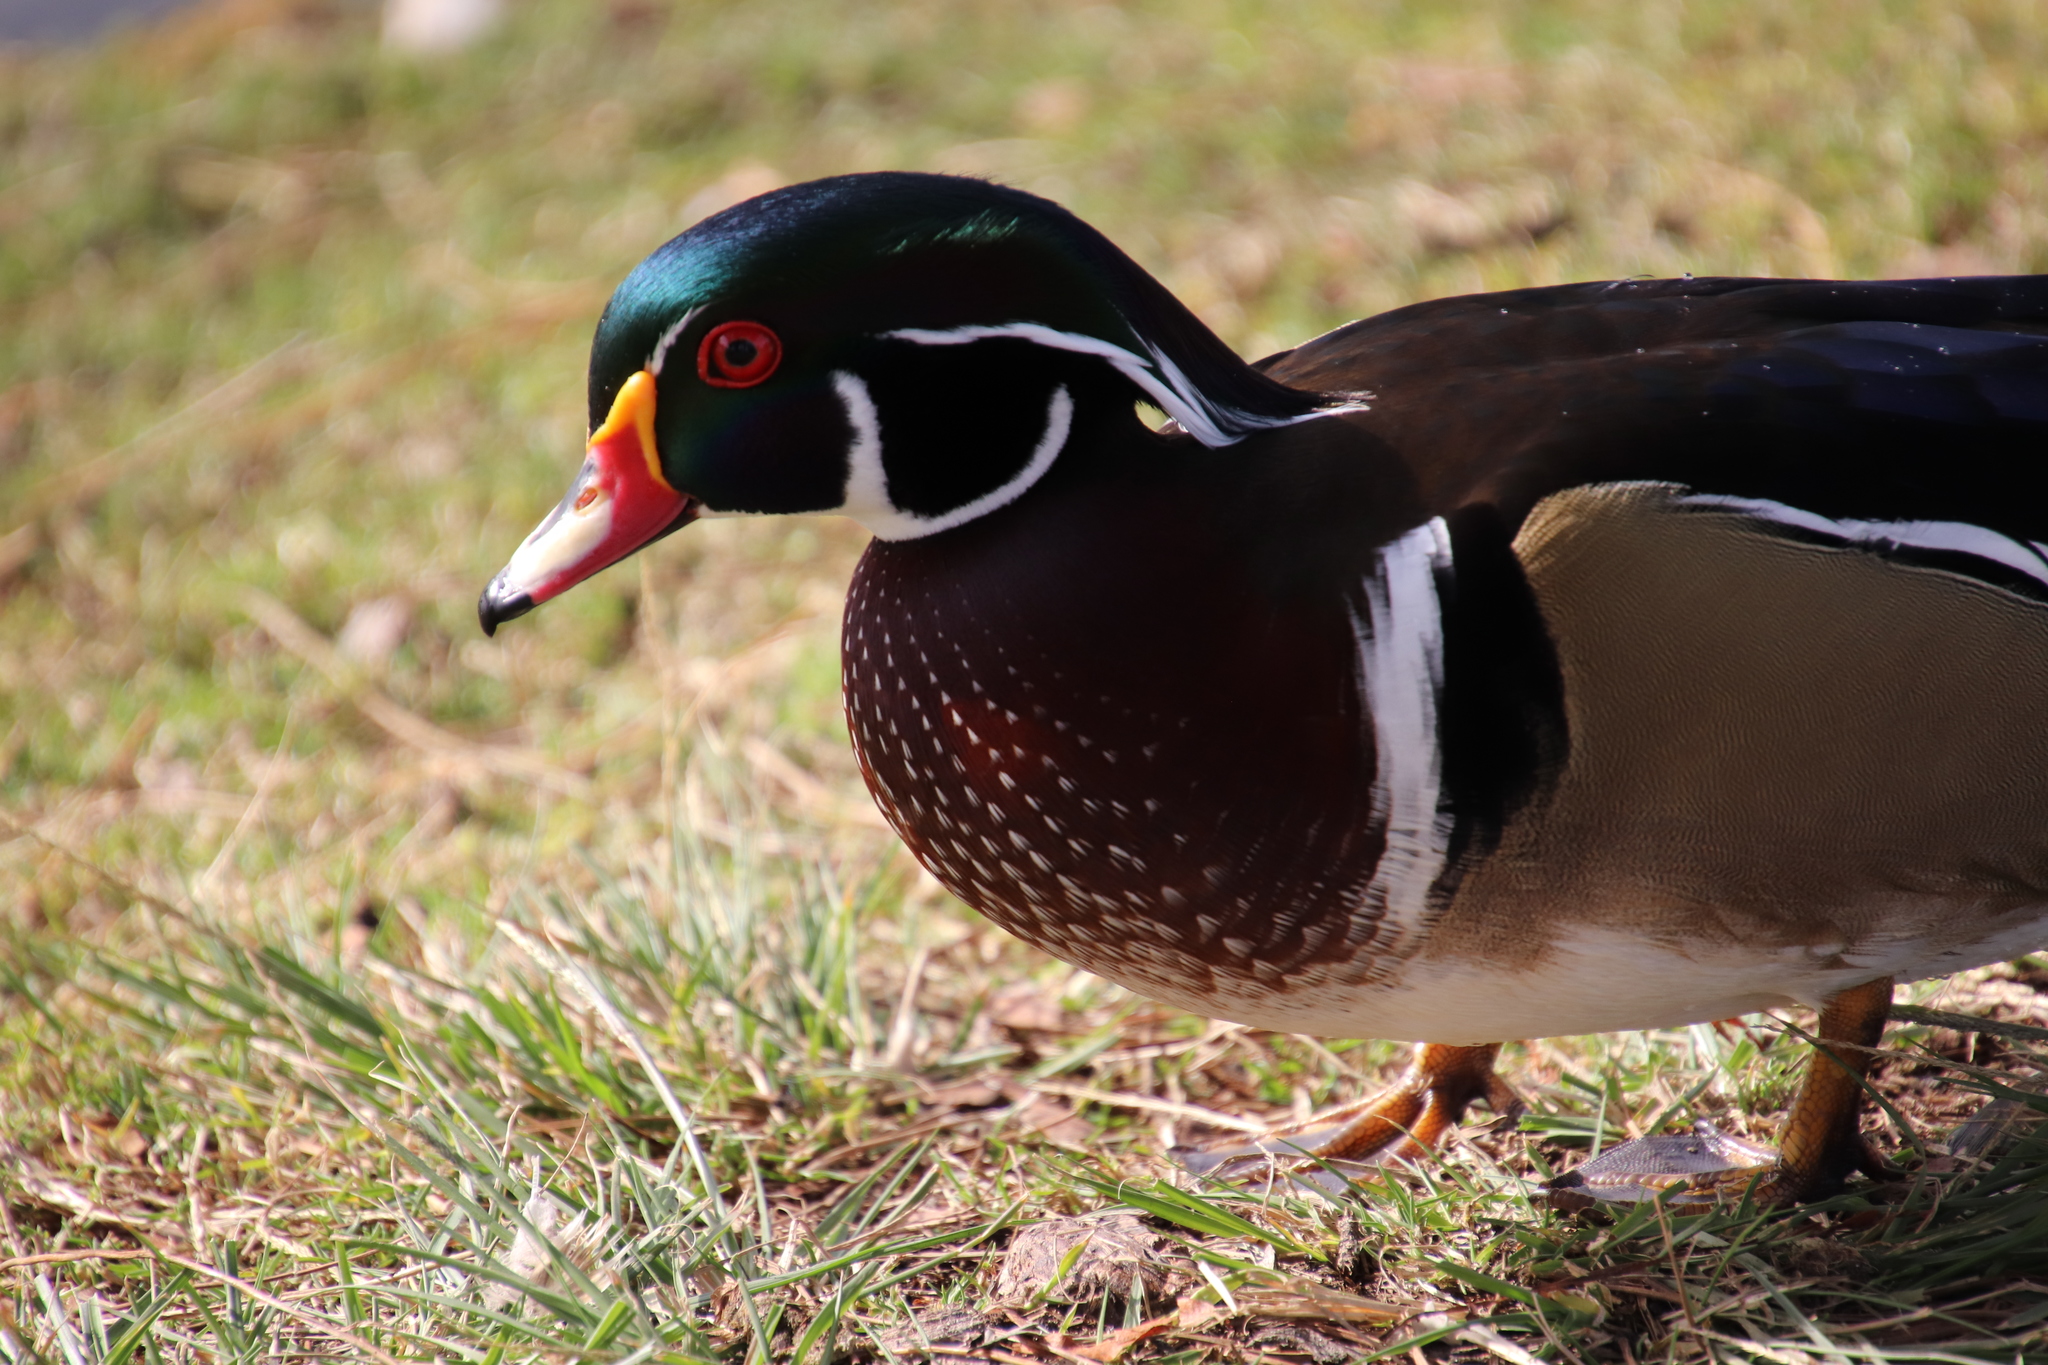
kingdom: Animalia
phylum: Chordata
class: Aves
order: Anseriformes
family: Anatidae
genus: Aix
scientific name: Aix sponsa
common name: Wood duck
